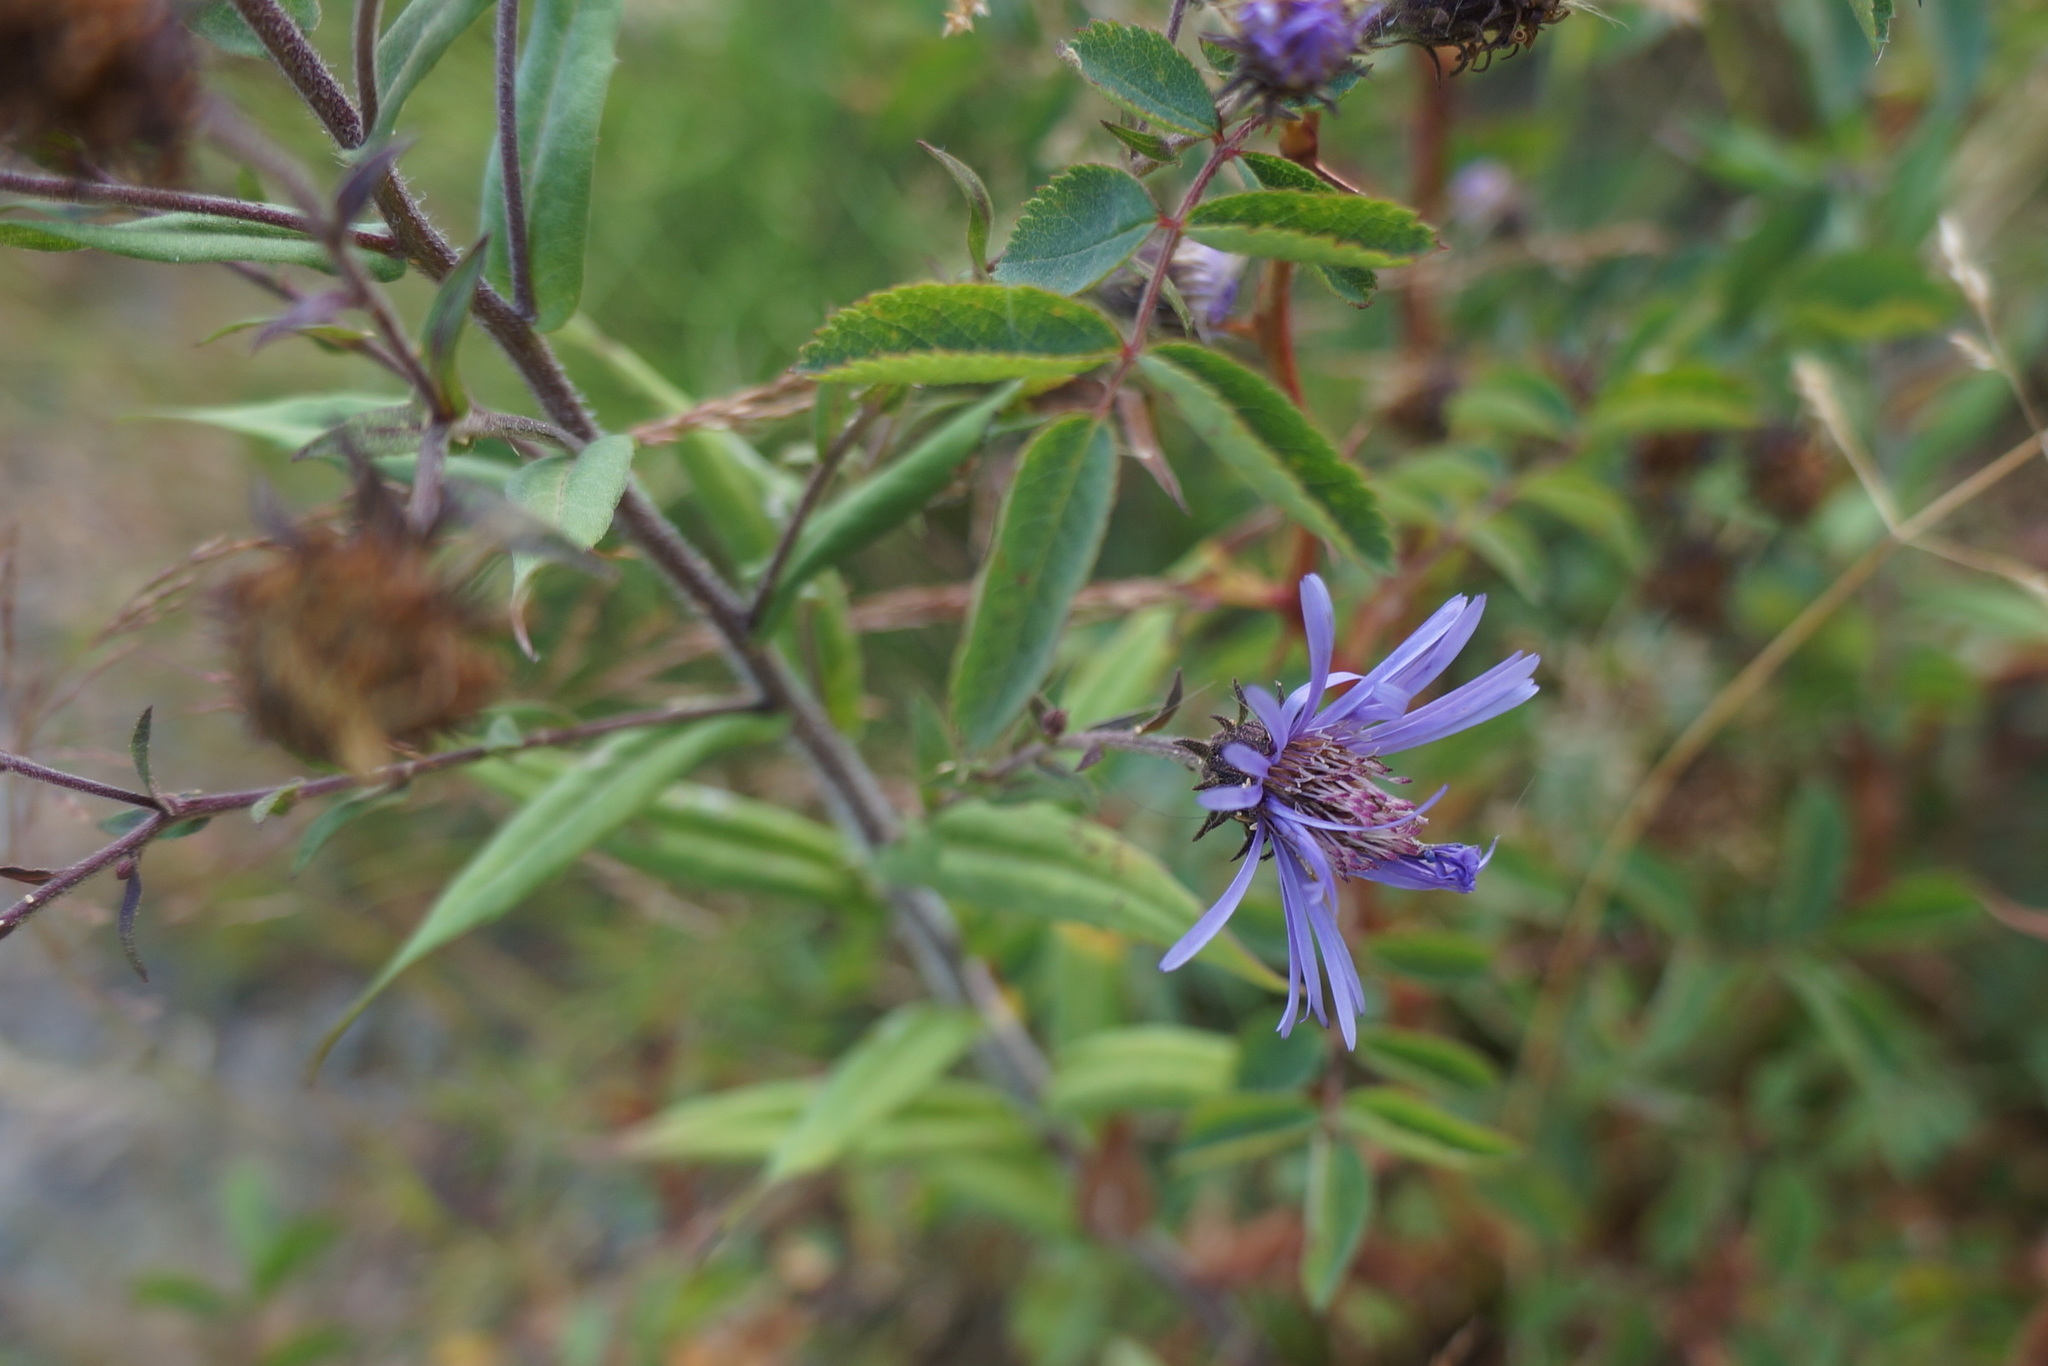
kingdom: Plantae
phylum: Tracheophyta
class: Magnoliopsida
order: Asterales
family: Asteraceae
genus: Canadanthus
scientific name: Canadanthus modestus
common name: Great northern aster
